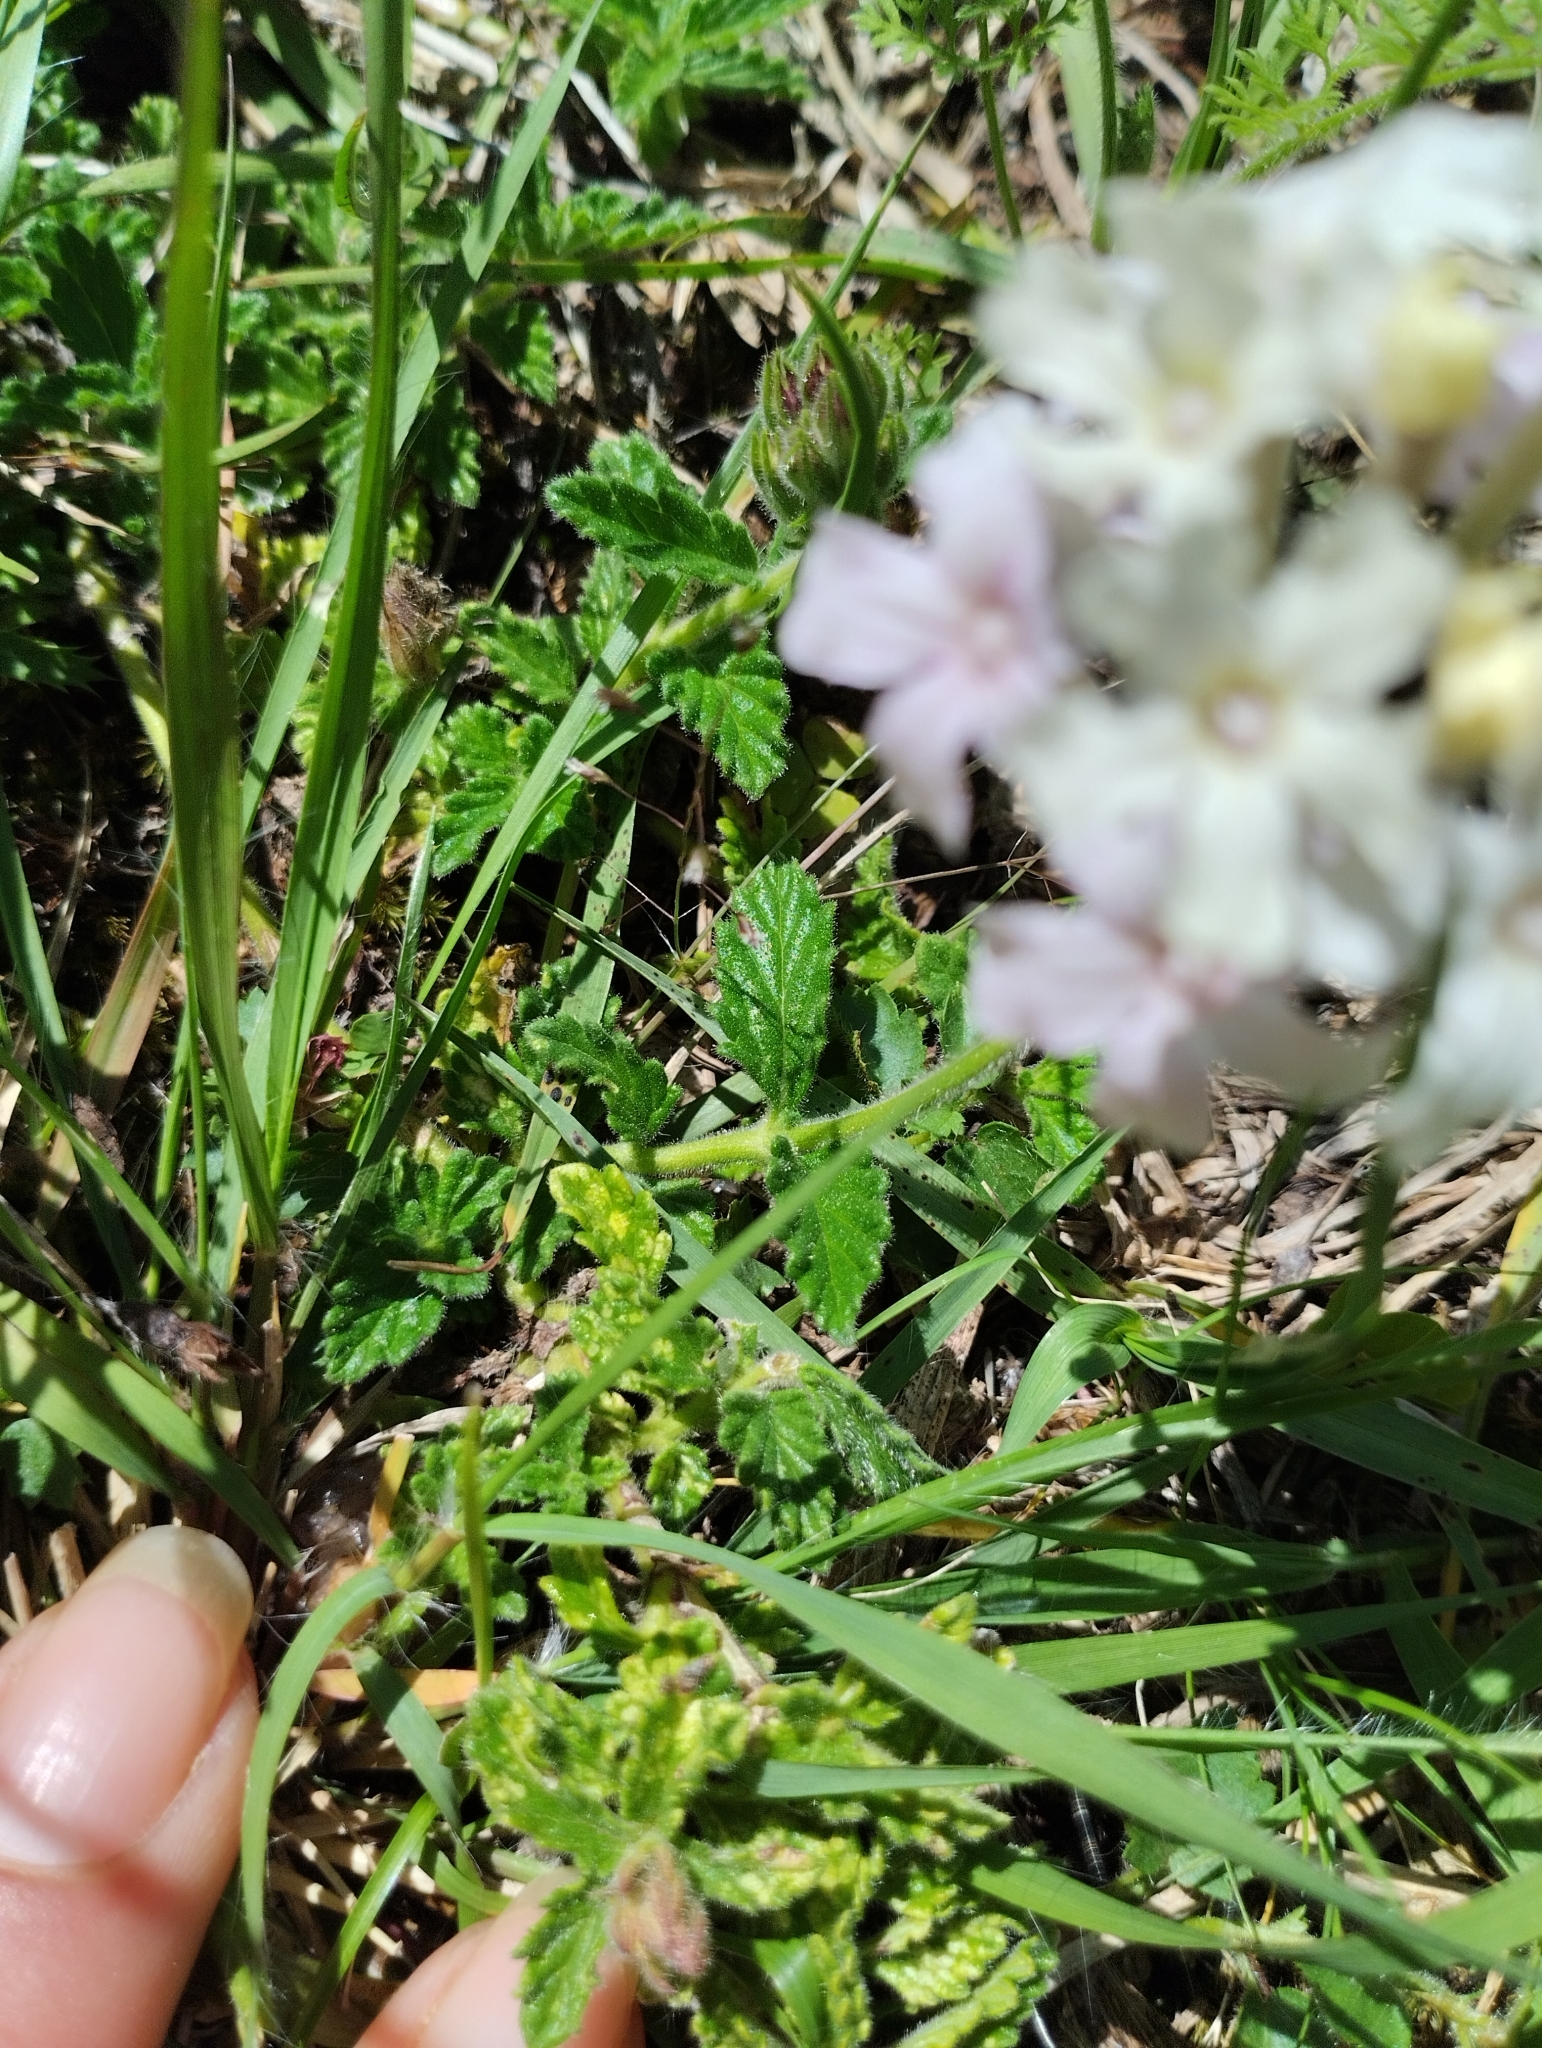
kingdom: Plantae
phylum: Tracheophyta
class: Magnoliopsida
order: Lamiales
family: Verbenaceae
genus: Verbena
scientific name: Verbena platensis
